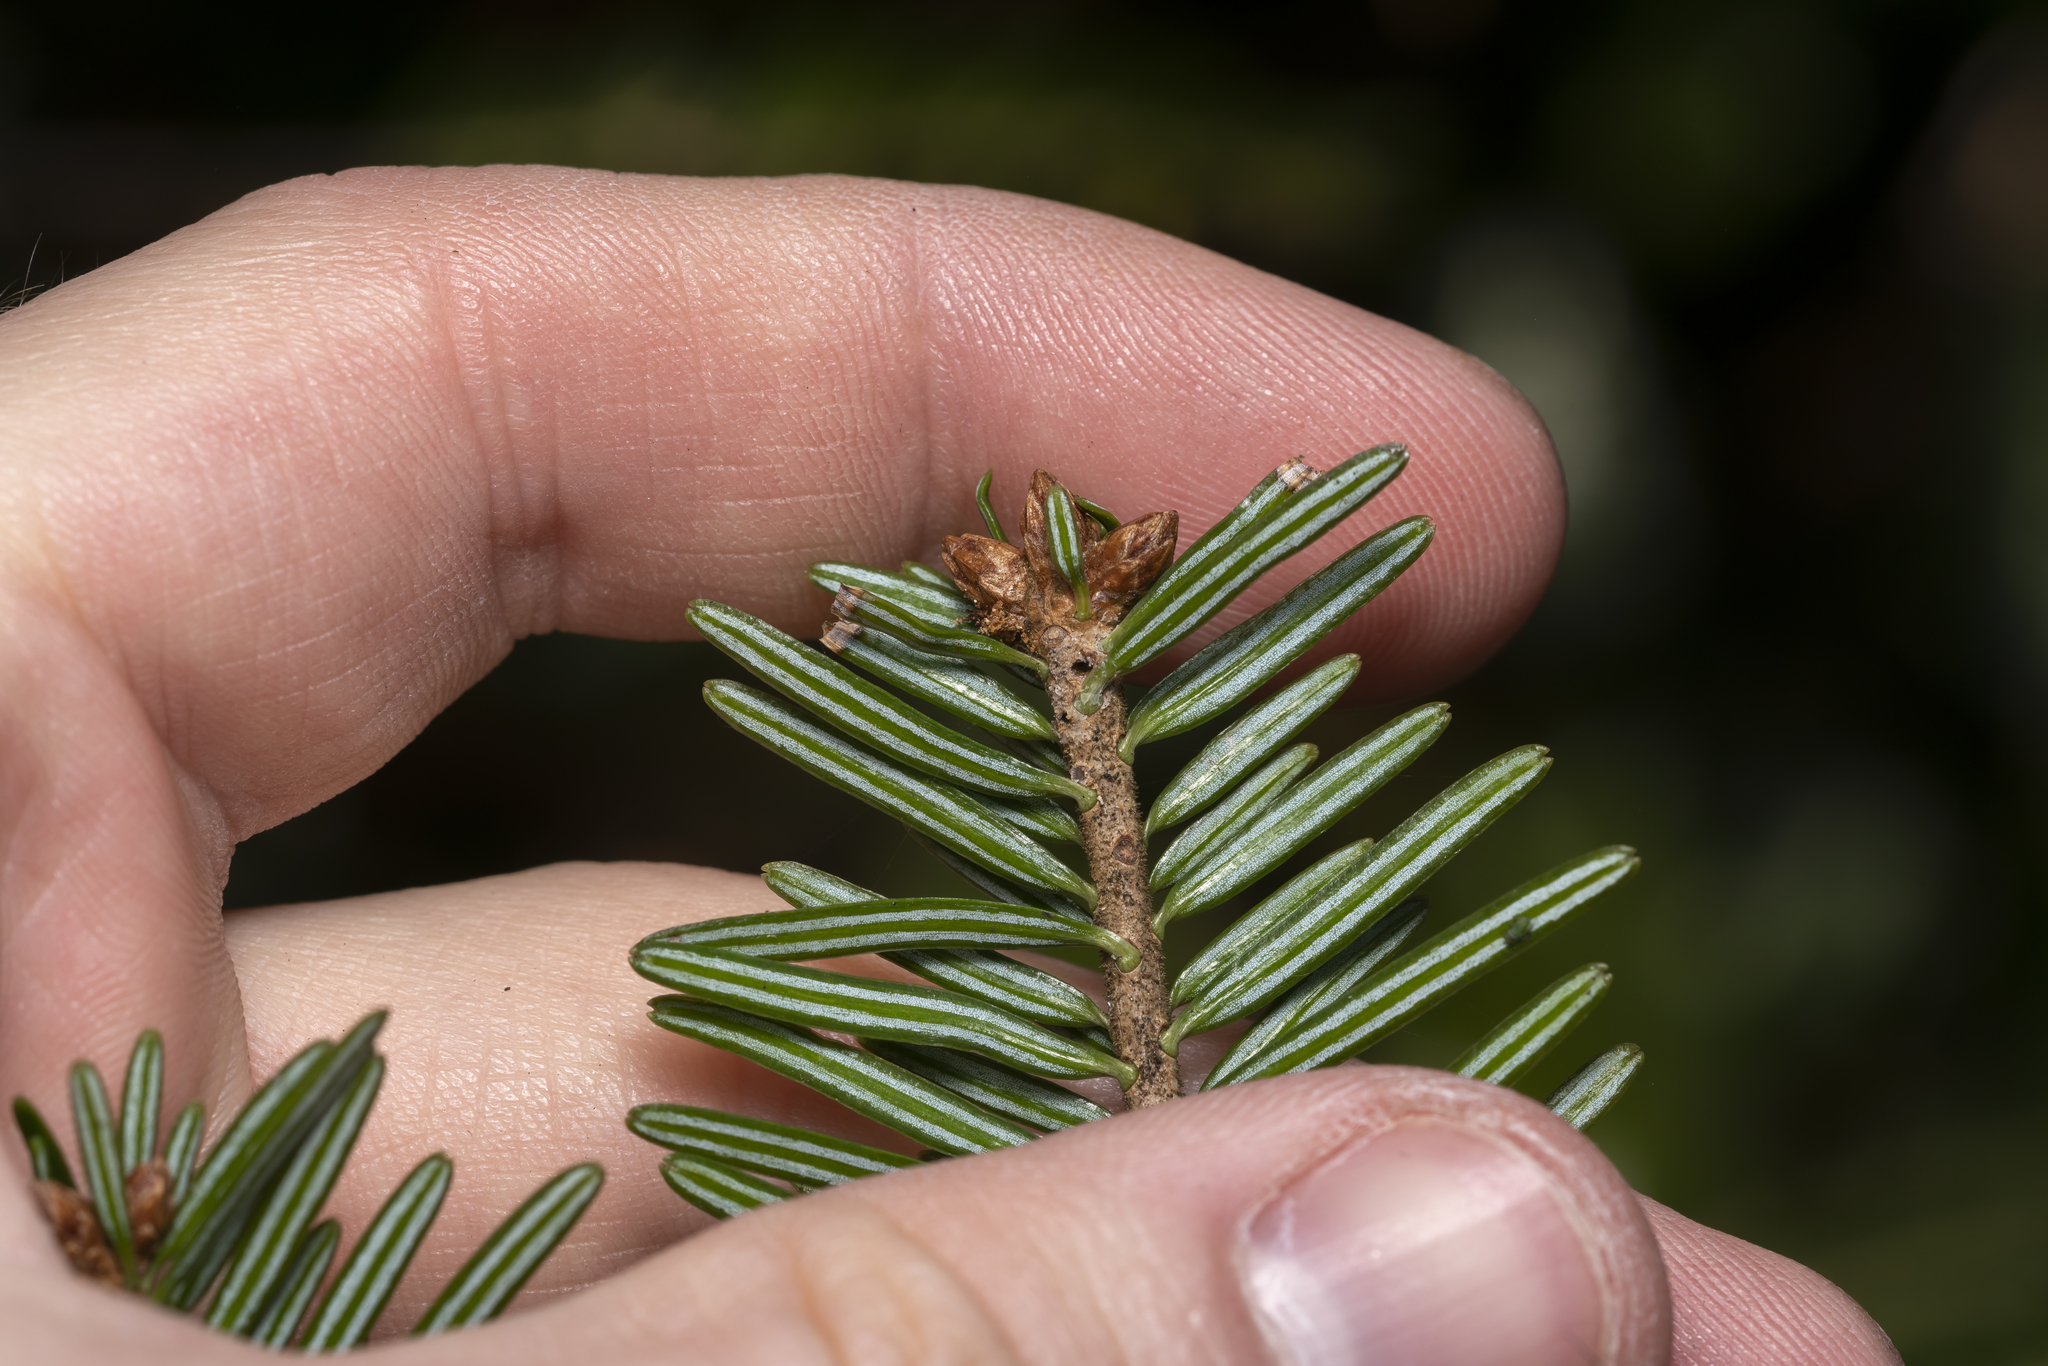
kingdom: Plantae
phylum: Tracheophyta
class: Pinopsida
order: Pinales
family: Pinaceae
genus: Abies
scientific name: Abies alba
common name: Silver fir
